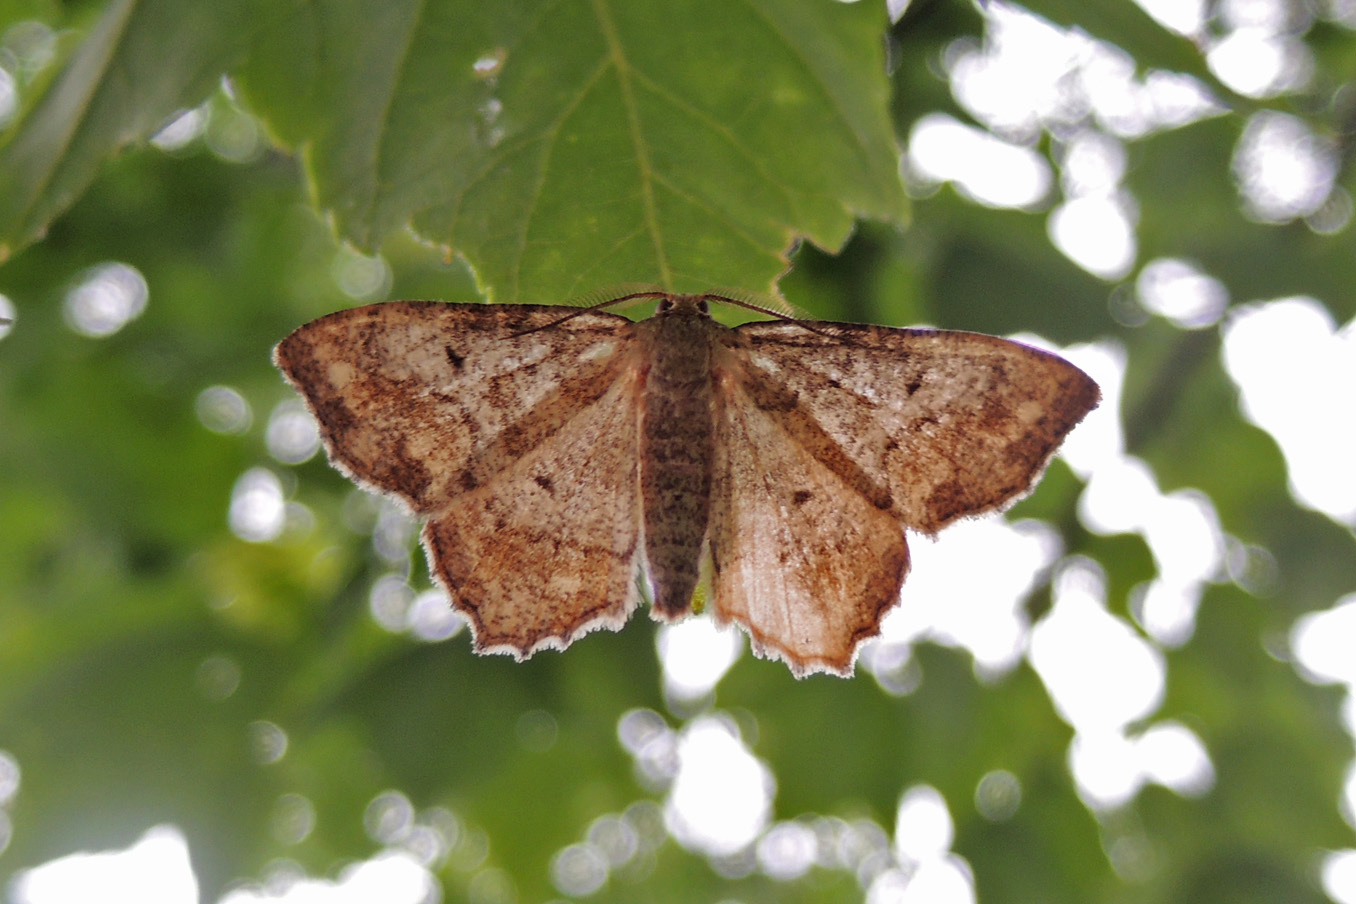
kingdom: Animalia
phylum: Arthropoda
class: Insecta
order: Lepidoptera
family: Geometridae
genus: Hypagyrtis
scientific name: Hypagyrtis unipunctata
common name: One-spotted variant
